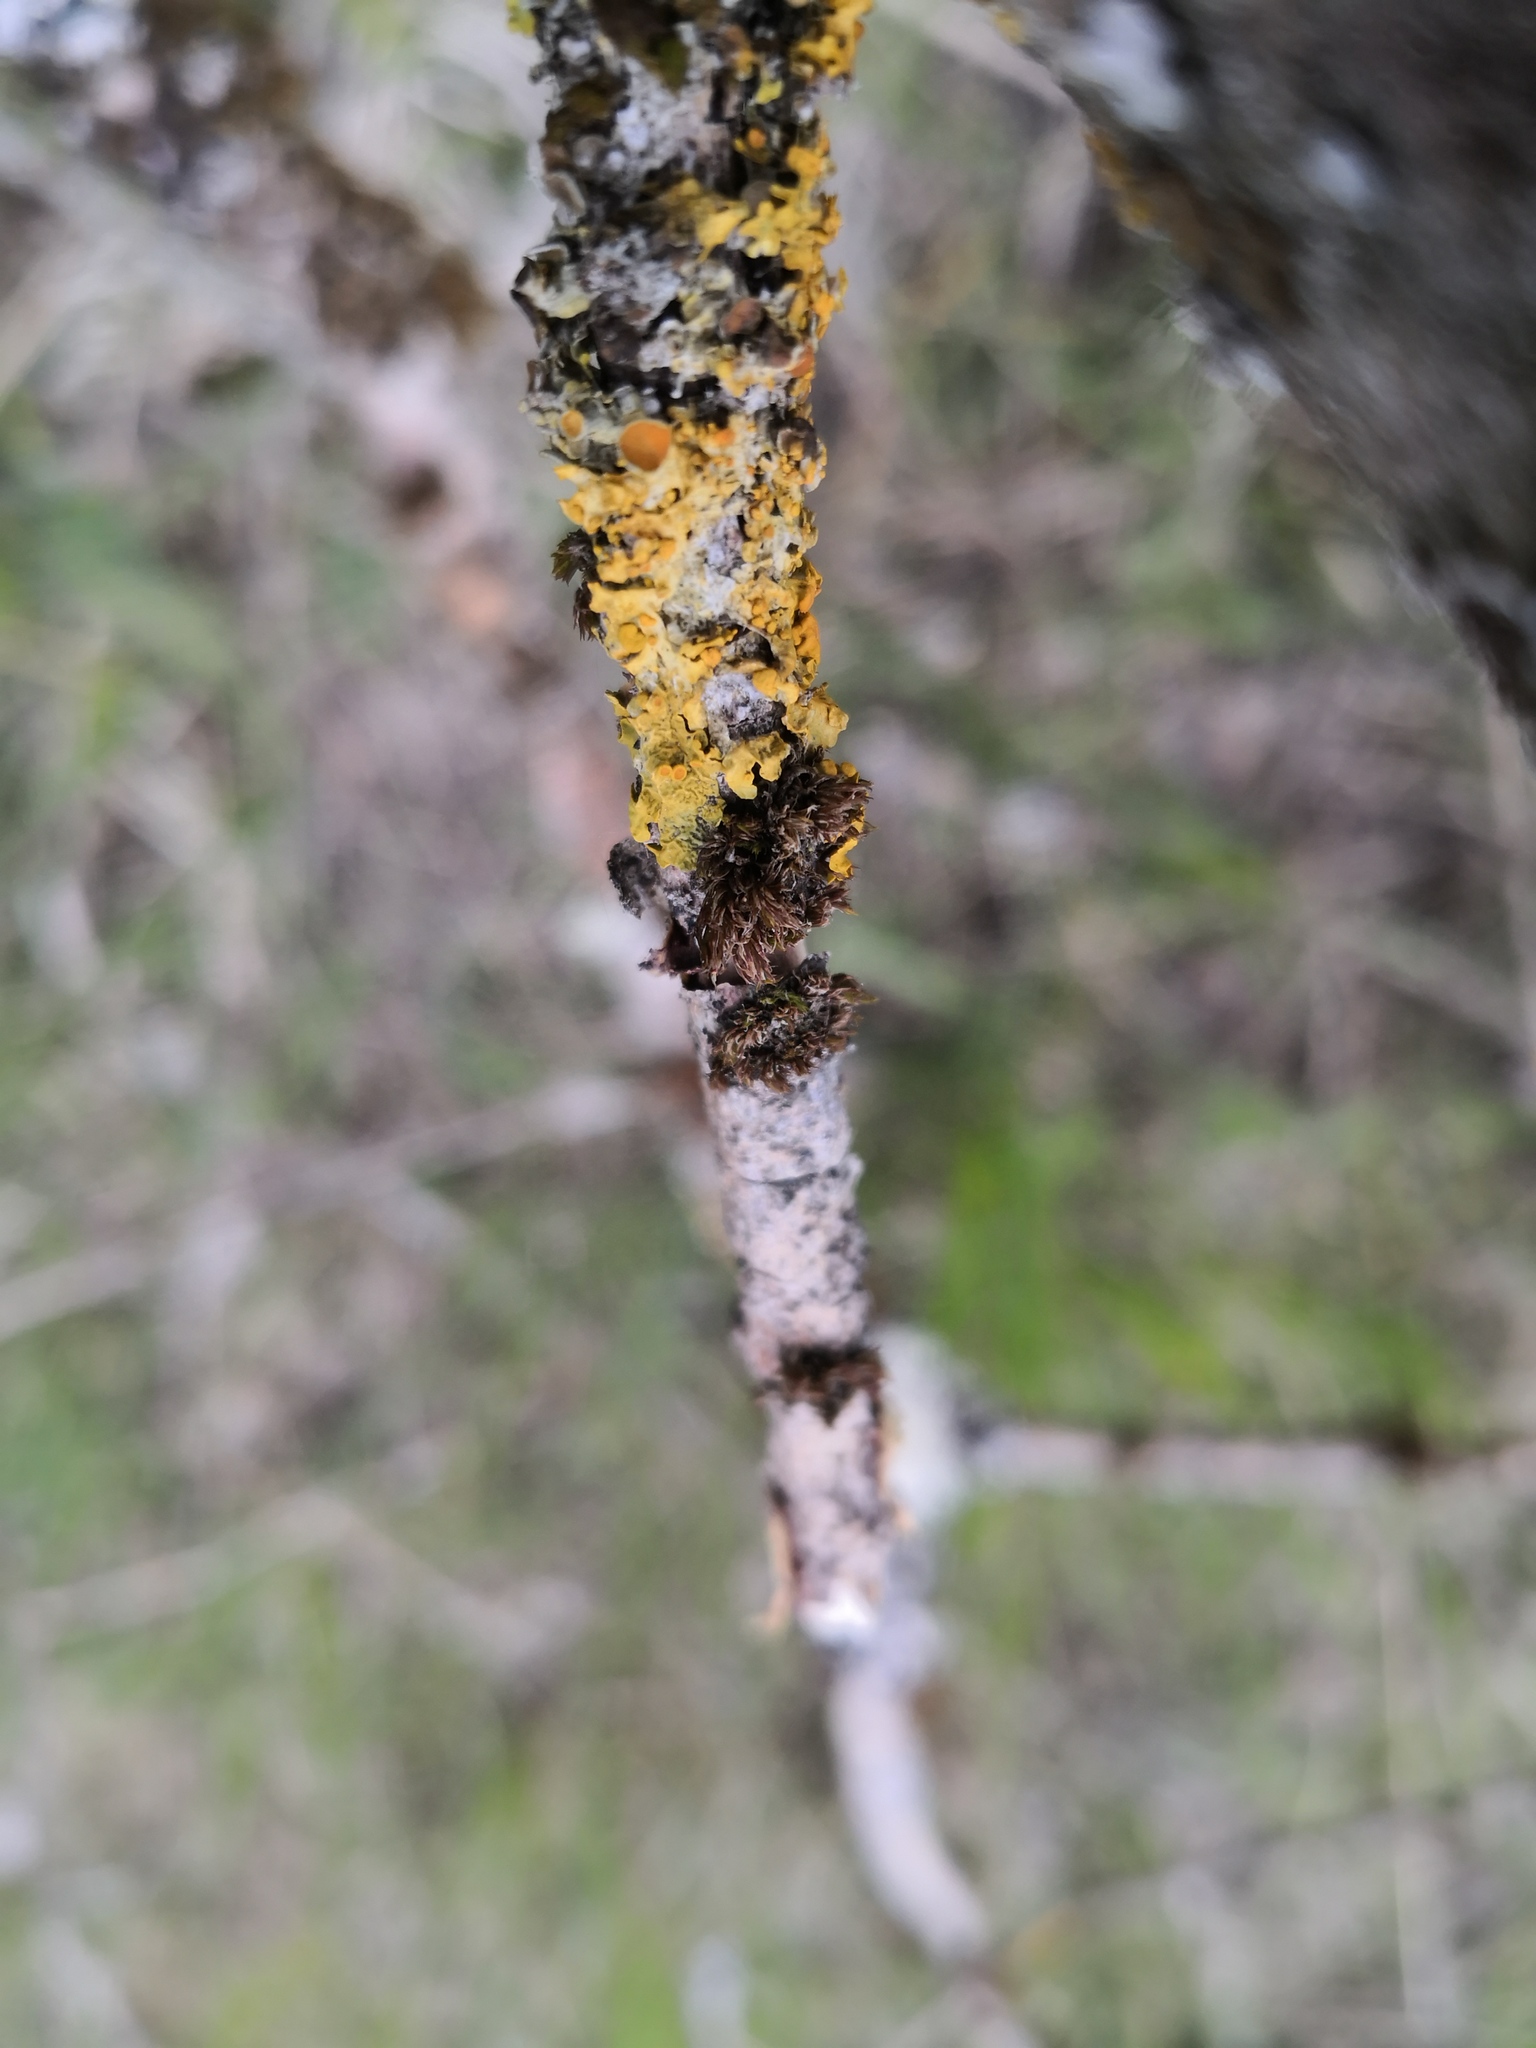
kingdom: Fungi
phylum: Ascomycota
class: Lecanoromycetes
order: Teloschistales
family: Teloschistaceae
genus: Xanthoria
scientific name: Xanthoria parietina
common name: Common orange lichen
